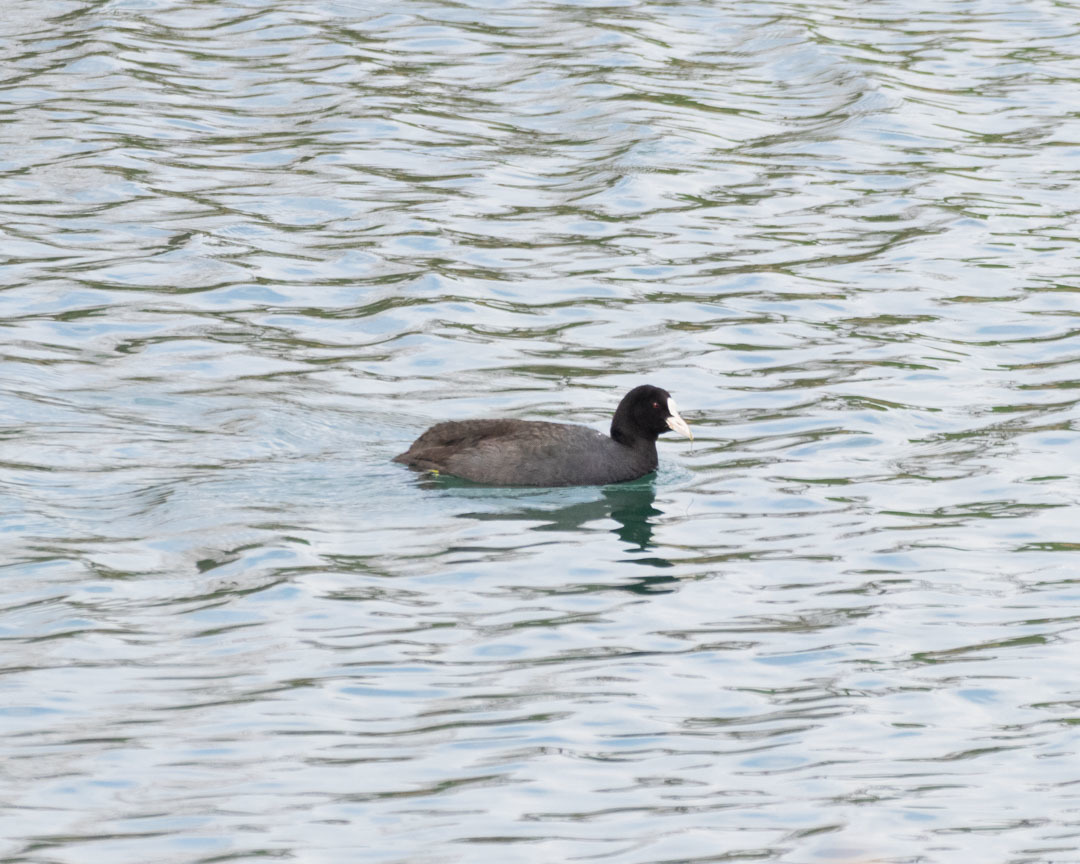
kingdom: Animalia
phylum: Chordata
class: Aves
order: Gruiformes
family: Rallidae
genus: Fulica
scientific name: Fulica atra
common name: Eurasian coot
